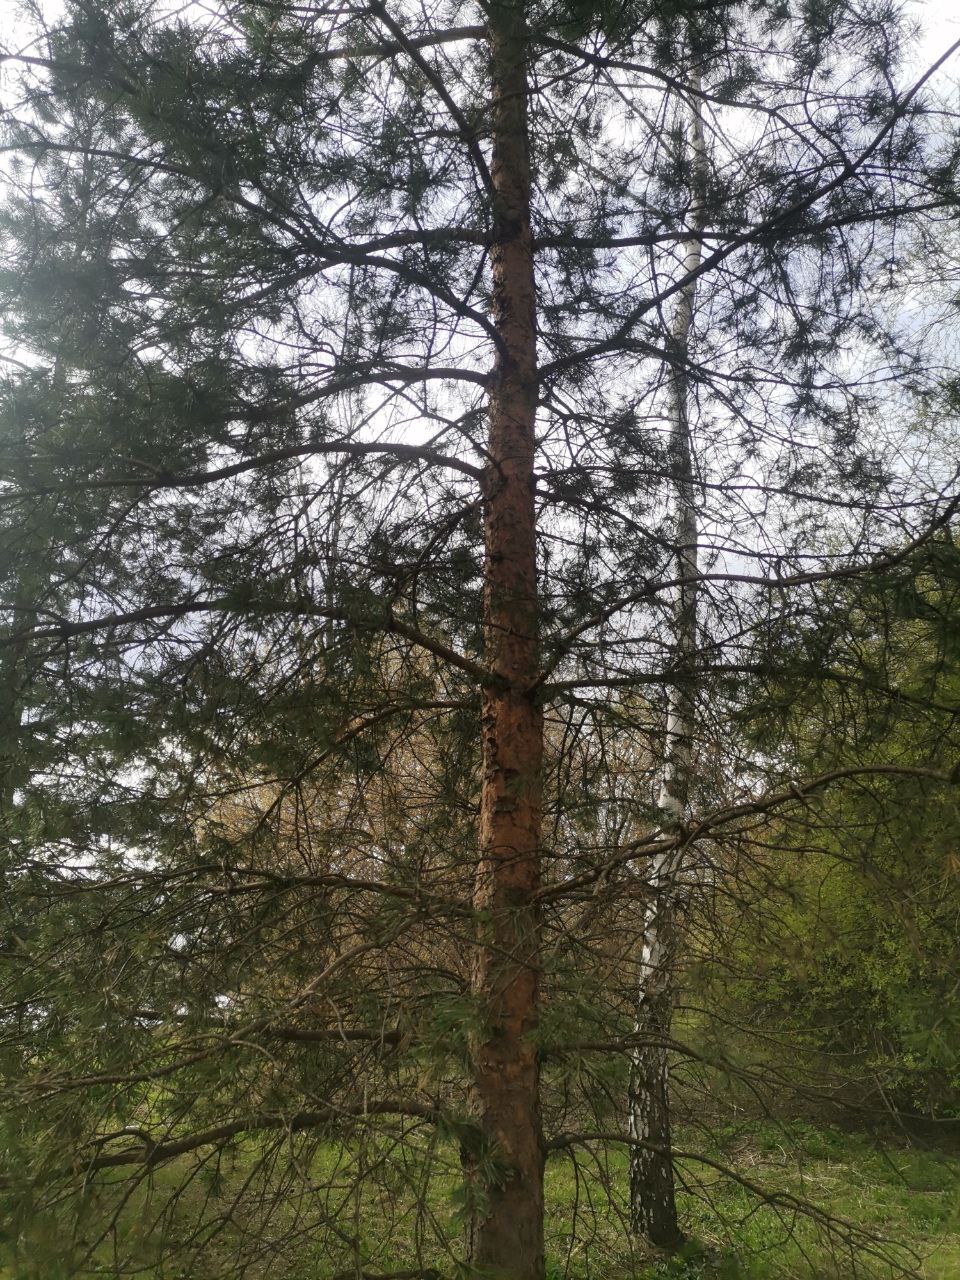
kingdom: Plantae
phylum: Tracheophyta
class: Pinopsida
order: Pinales
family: Pinaceae
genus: Pinus
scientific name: Pinus sylvestris
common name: Scots pine
